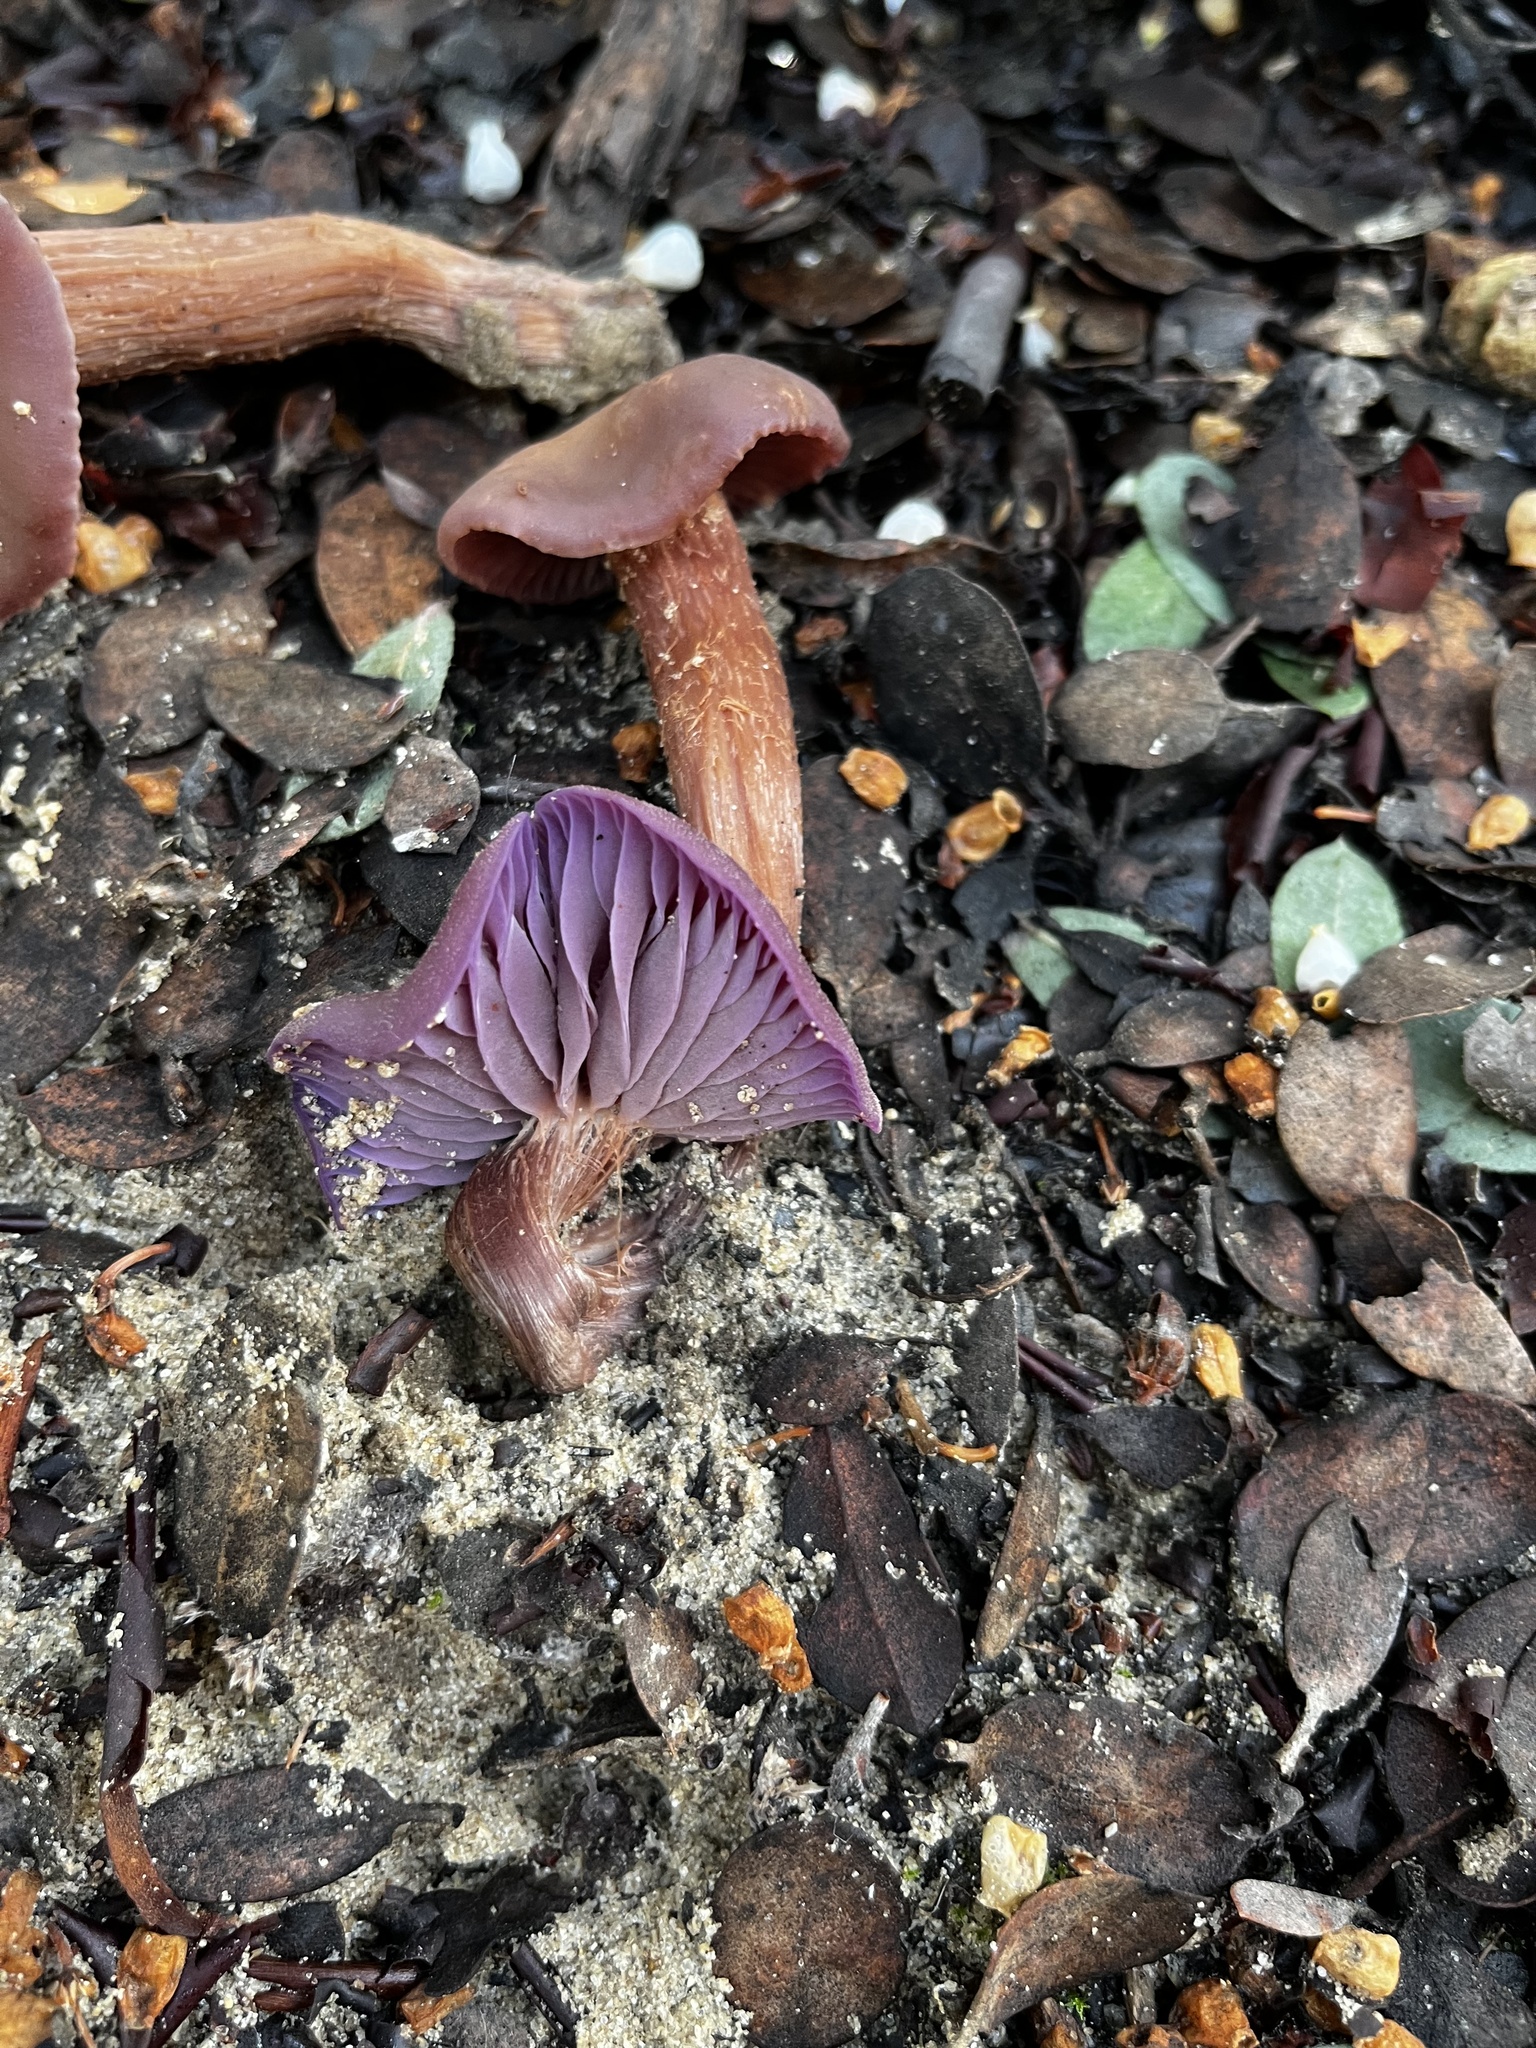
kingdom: Fungi
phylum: Basidiomycota
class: Agaricomycetes
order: Agaricales
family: Hydnangiaceae
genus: Laccaria
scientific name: Laccaria amethysteo-occidentalis
